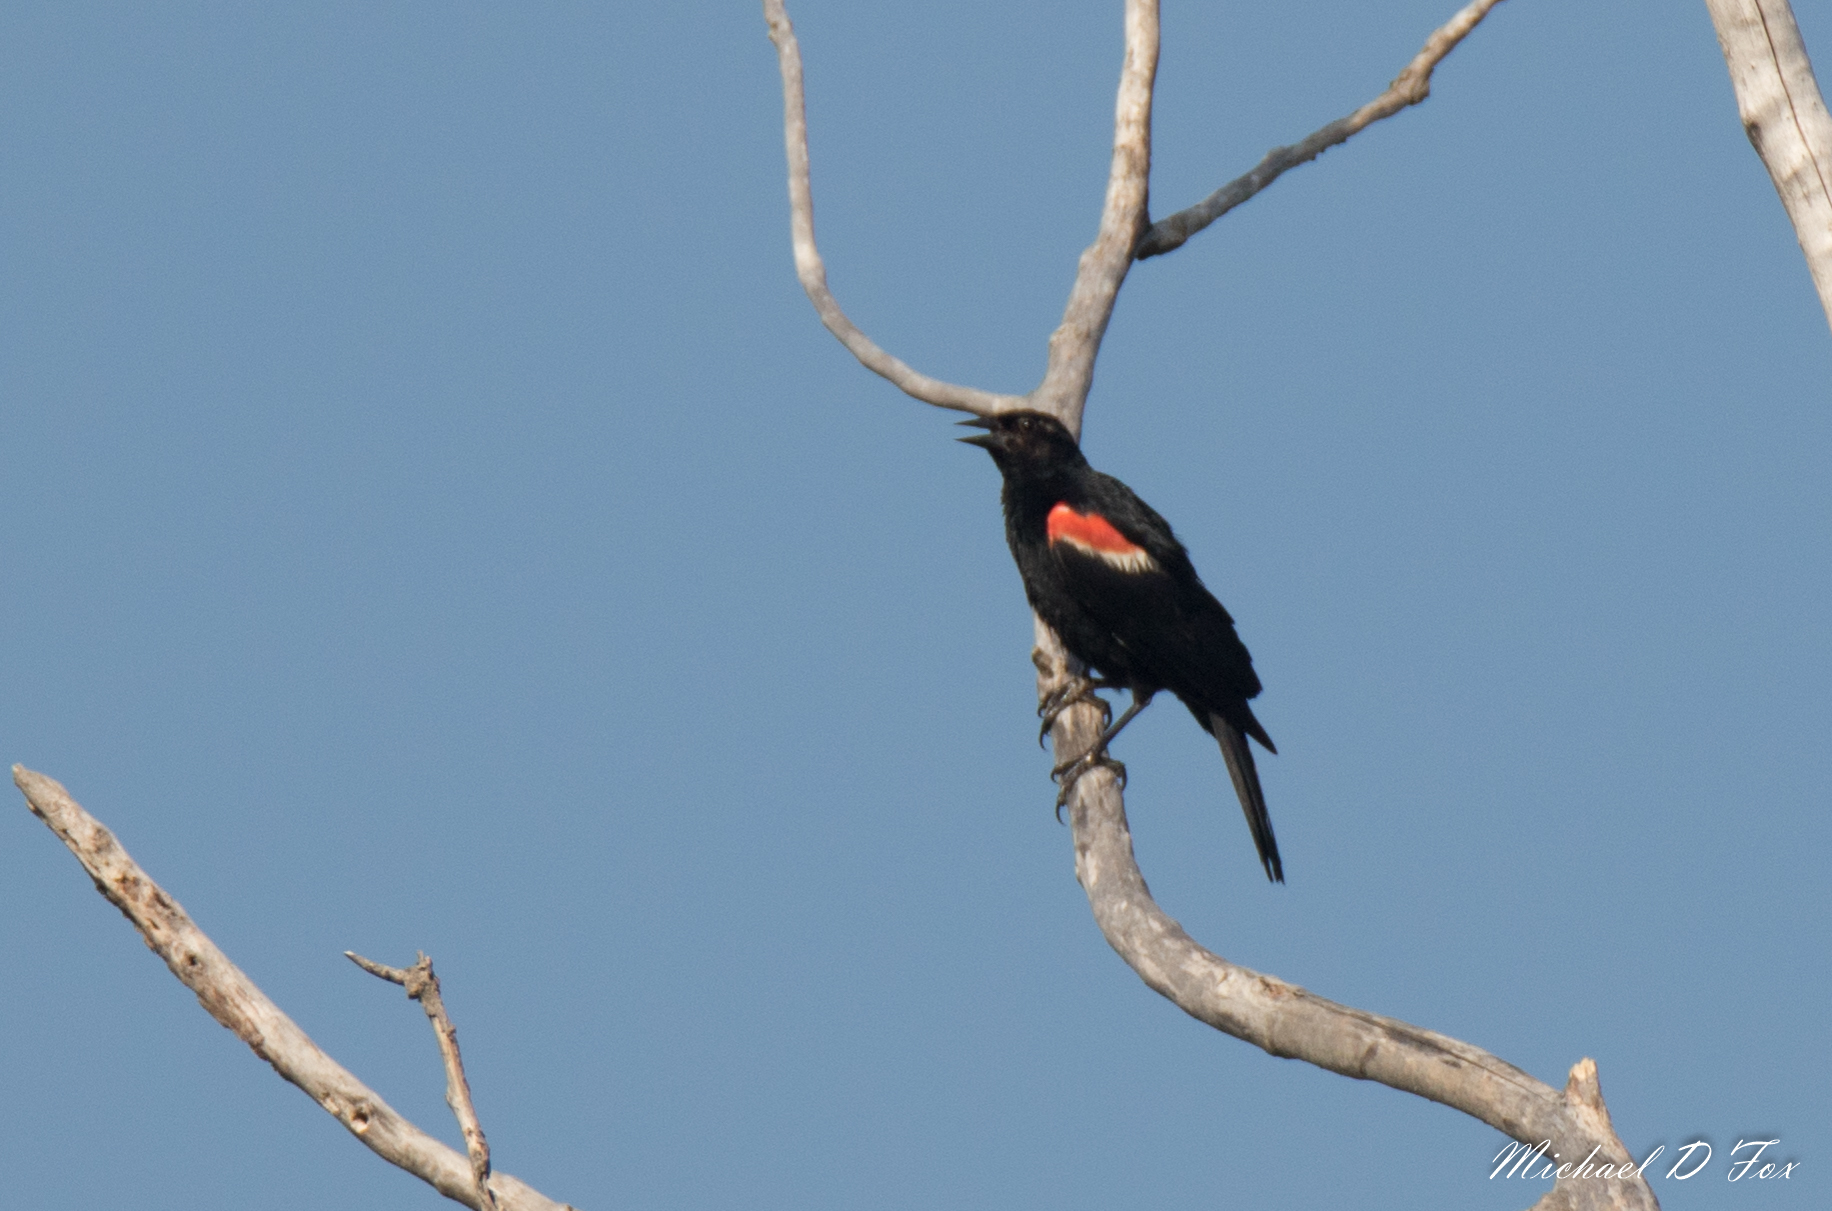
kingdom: Animalia
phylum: Chordata
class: Aves
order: Passeriformes
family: Icteridae
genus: Agelaius
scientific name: Agelaius phoeniceus
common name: Red-winged blackbird
